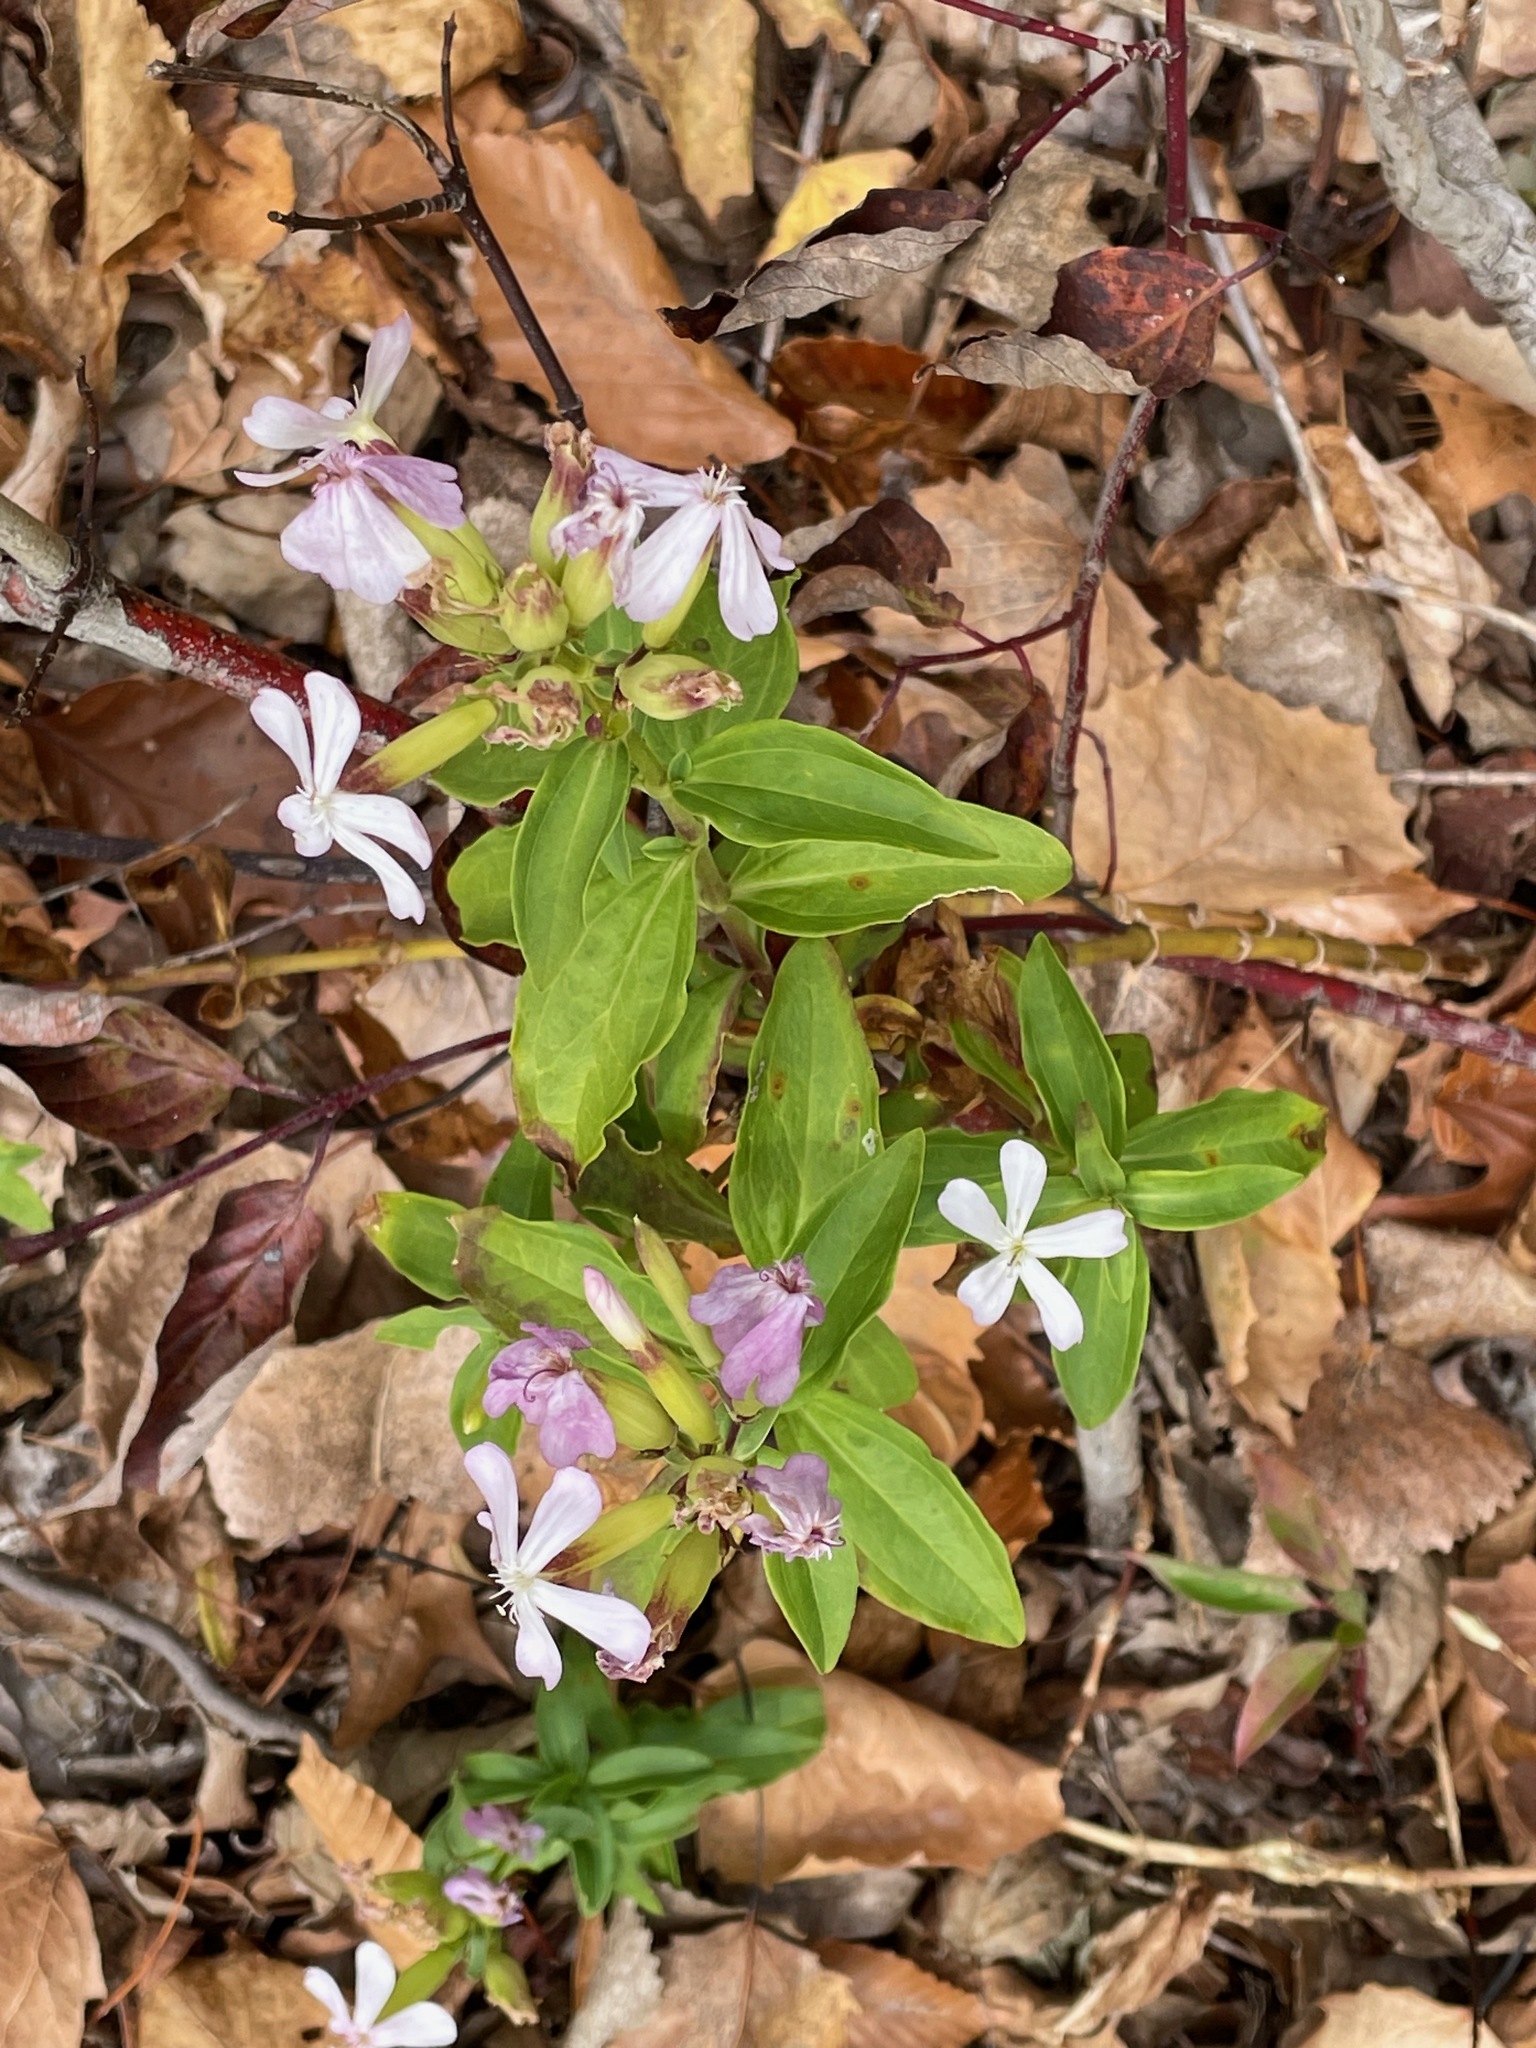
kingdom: Plantae
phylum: Tracheophyta
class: Magnoliopsida
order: Caryophyllales
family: Caryophyllaceae
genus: Saponaria
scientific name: Saponaria officinalis
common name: Soapwort
